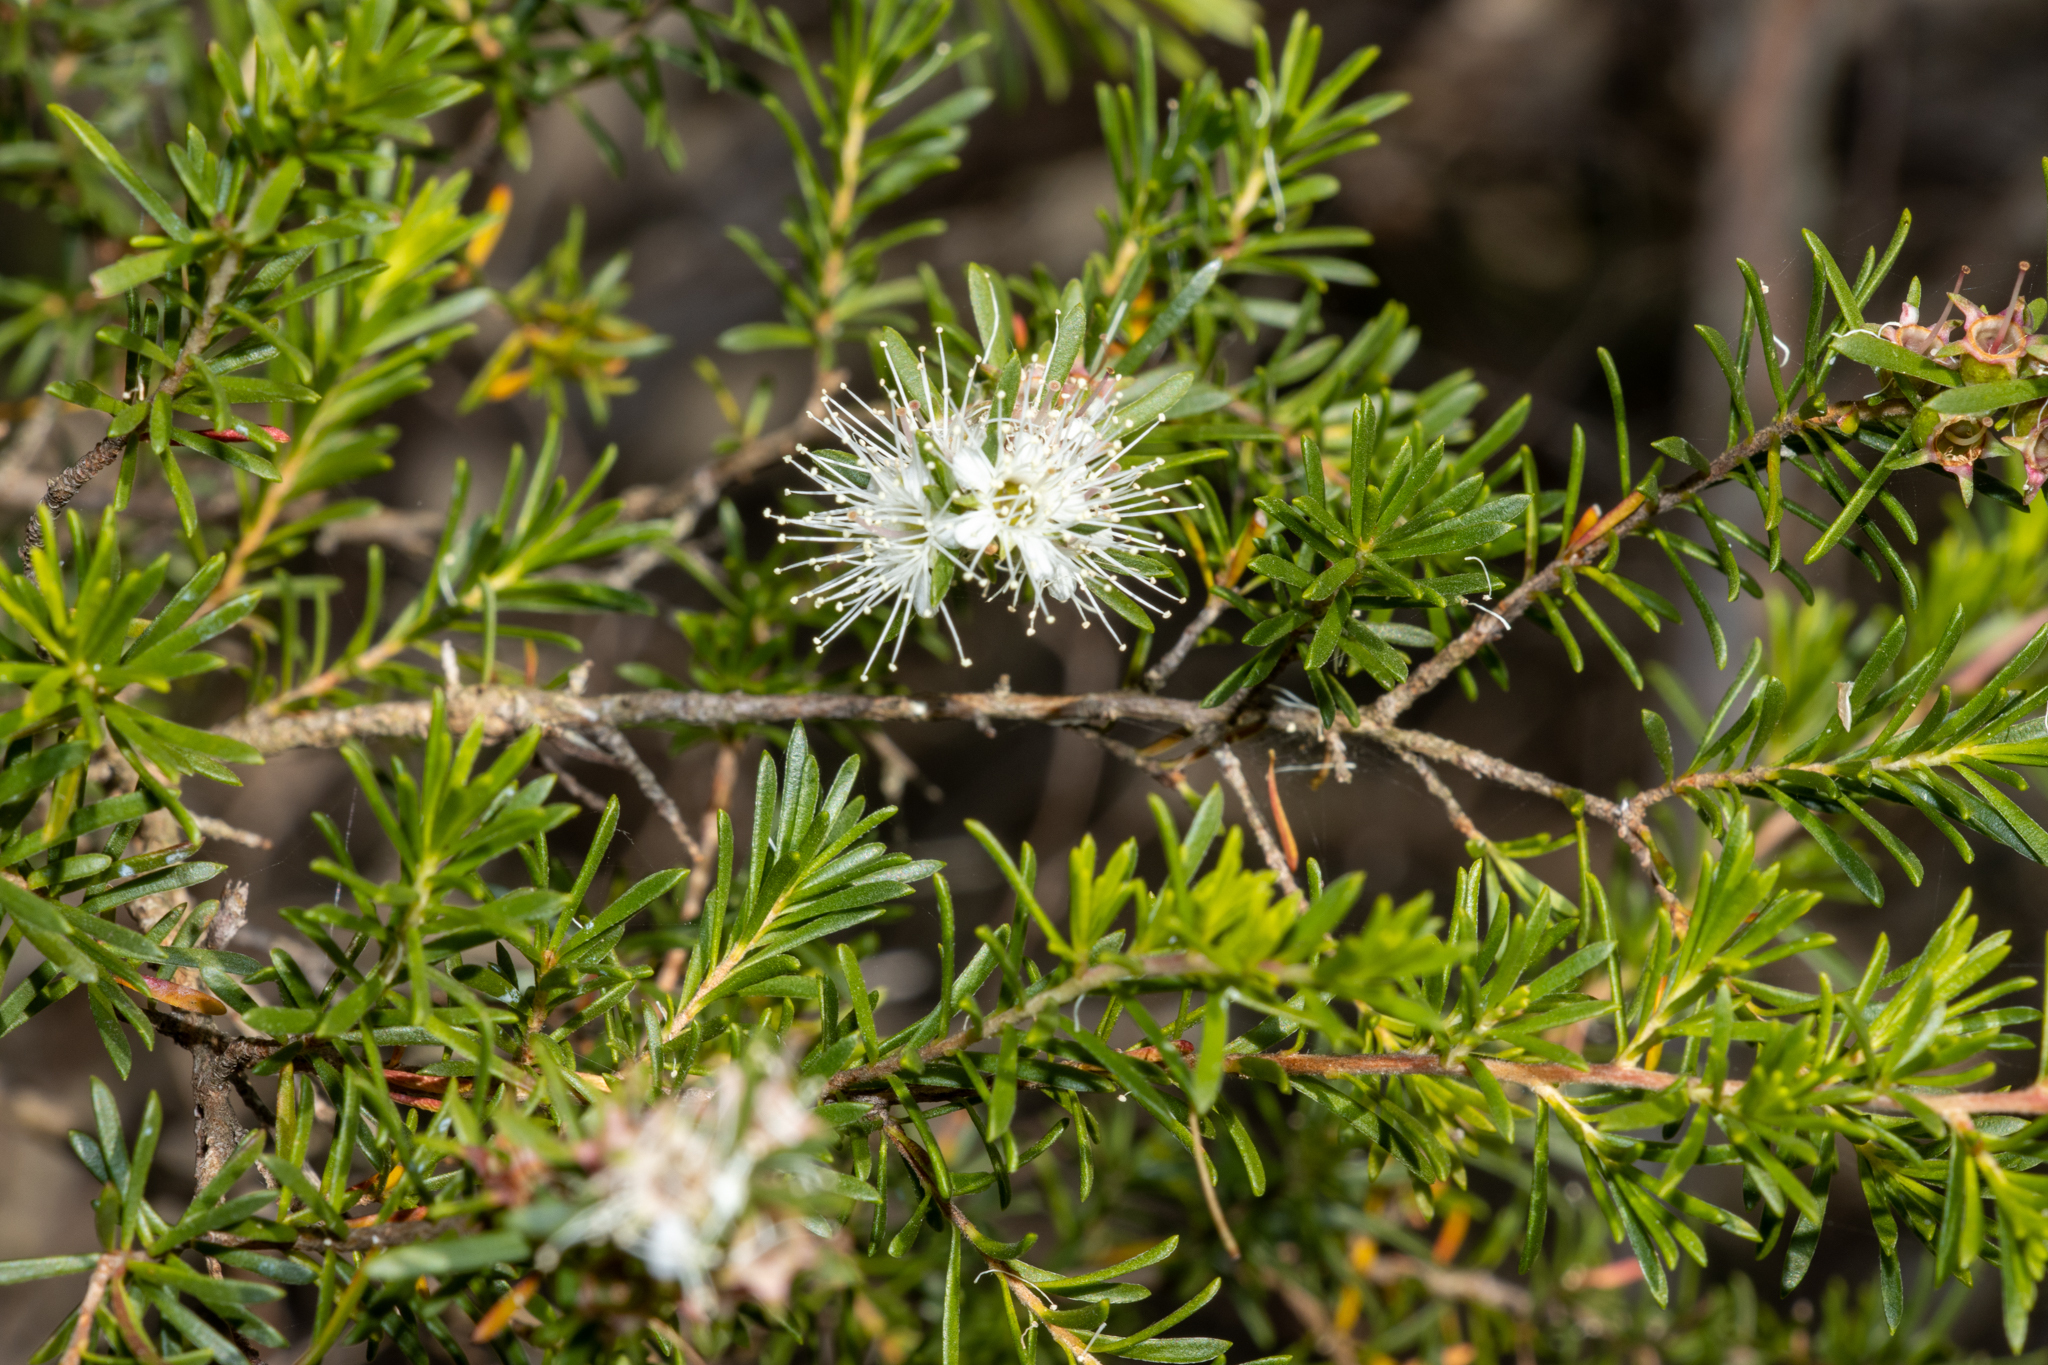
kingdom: Plantae
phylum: Tracheophyta
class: Magnoliopsida
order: Myrtales
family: Myrtaceae
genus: Kunzea
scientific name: Kunzea ambigua
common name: Tickbush
